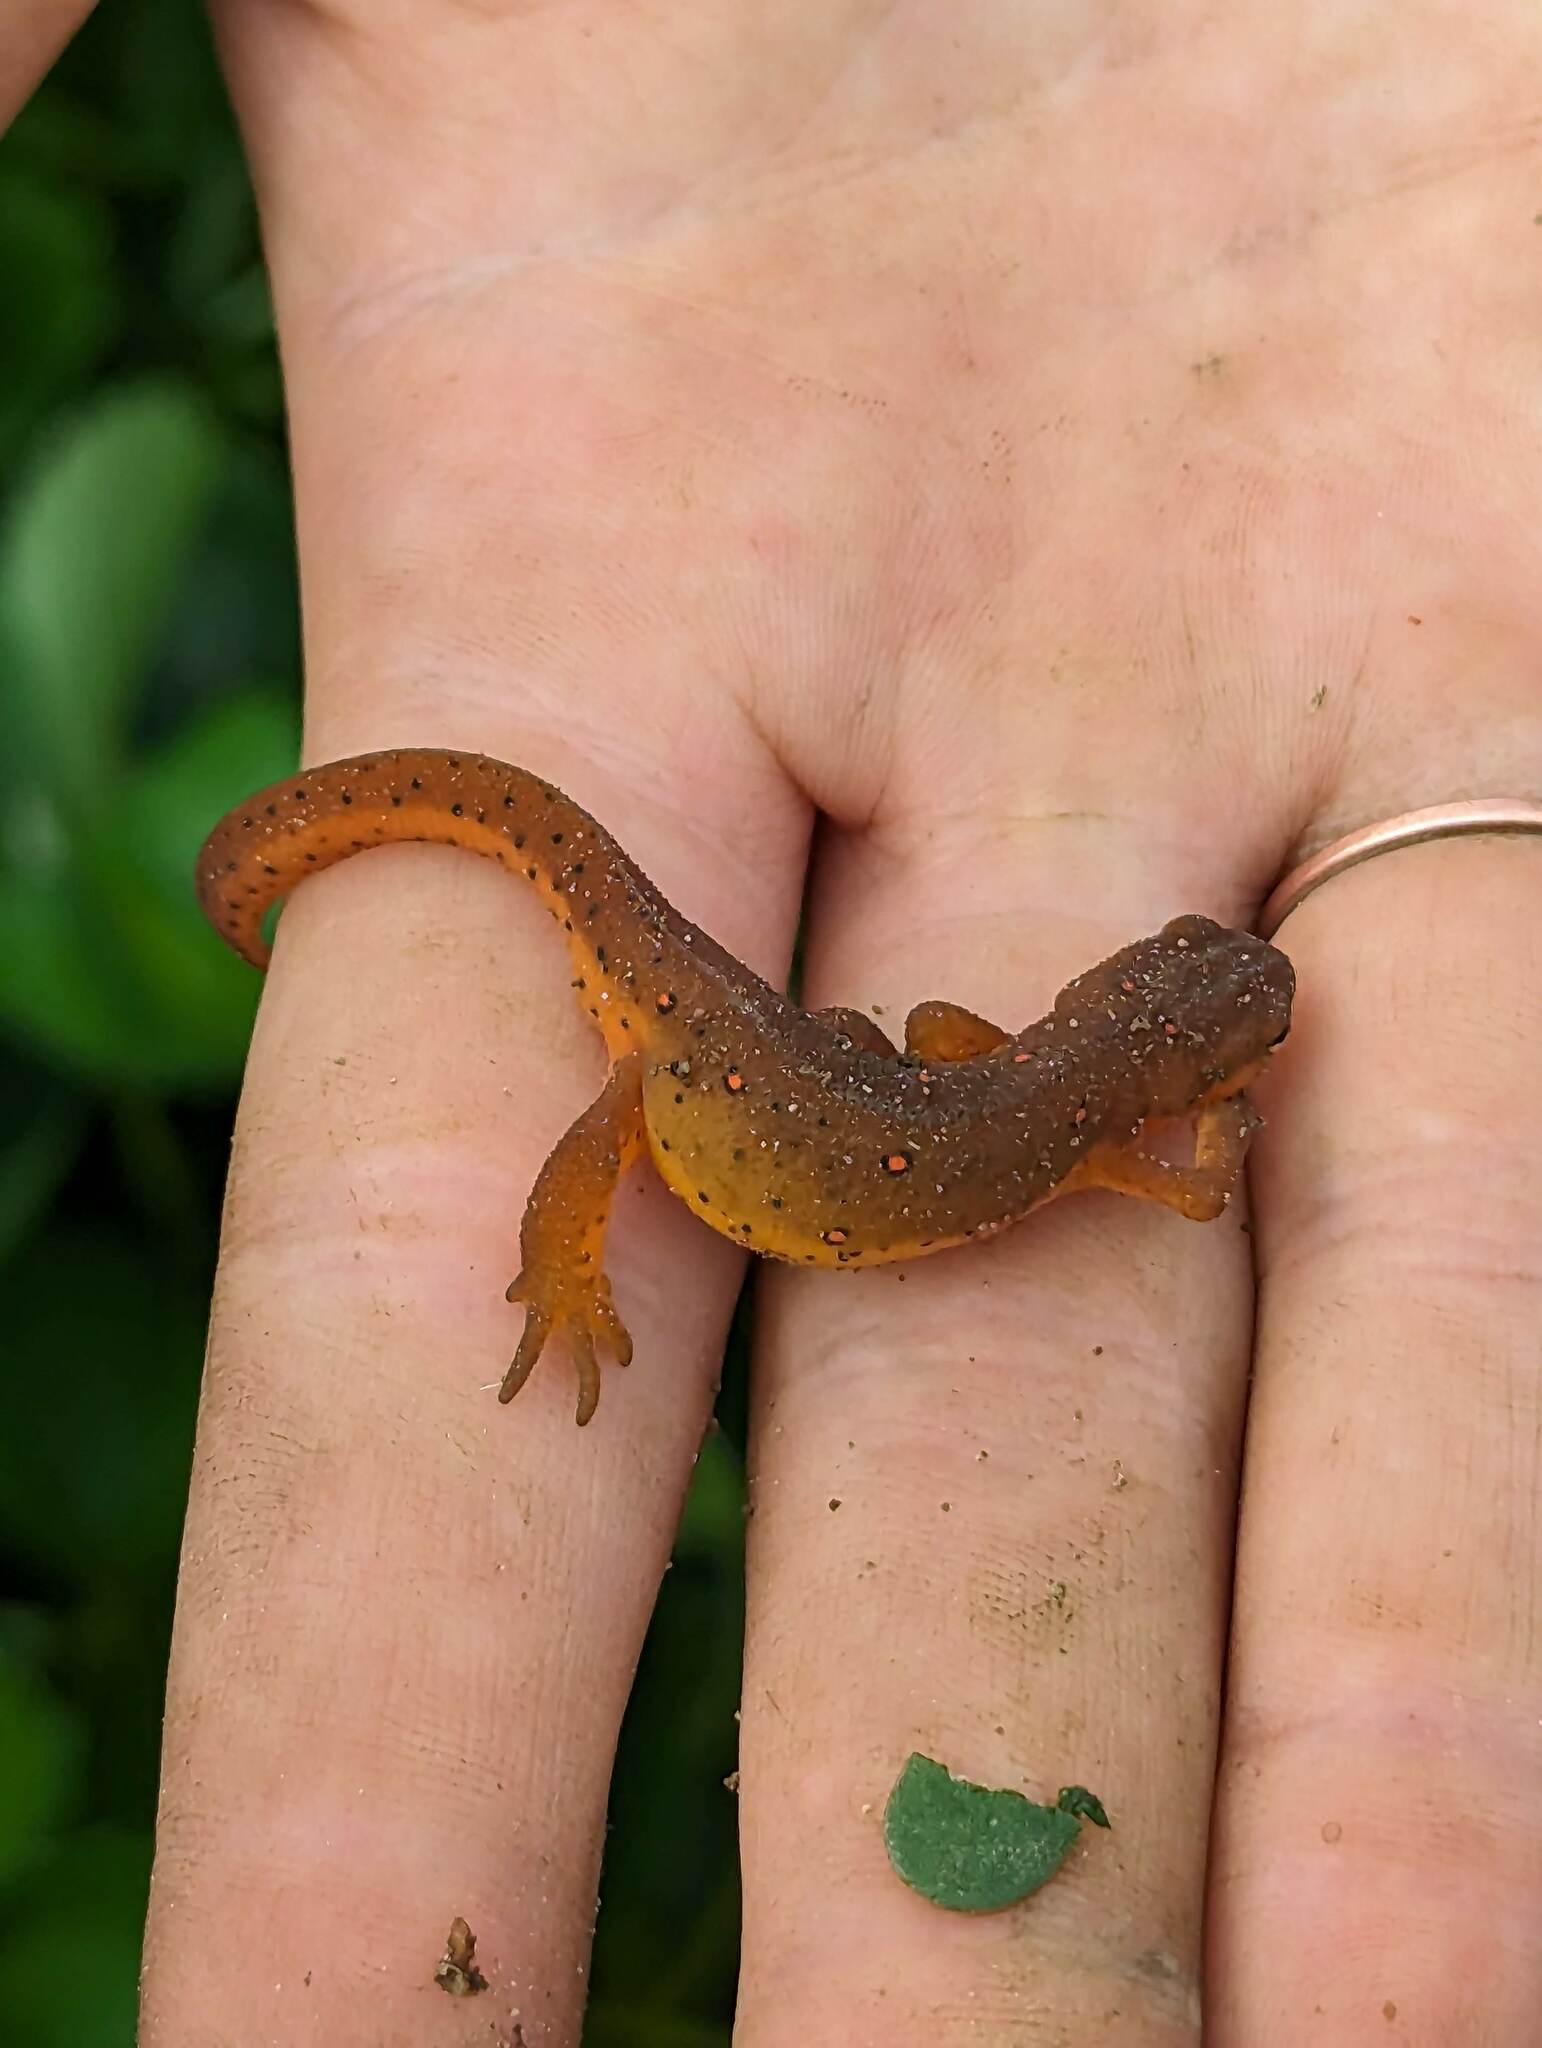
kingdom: Animalia
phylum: Chordata
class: Amphibia
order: Caudata
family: Salamandridae
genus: Notophthalmus
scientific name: Notophthalmus viridescens
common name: Eastern newt
